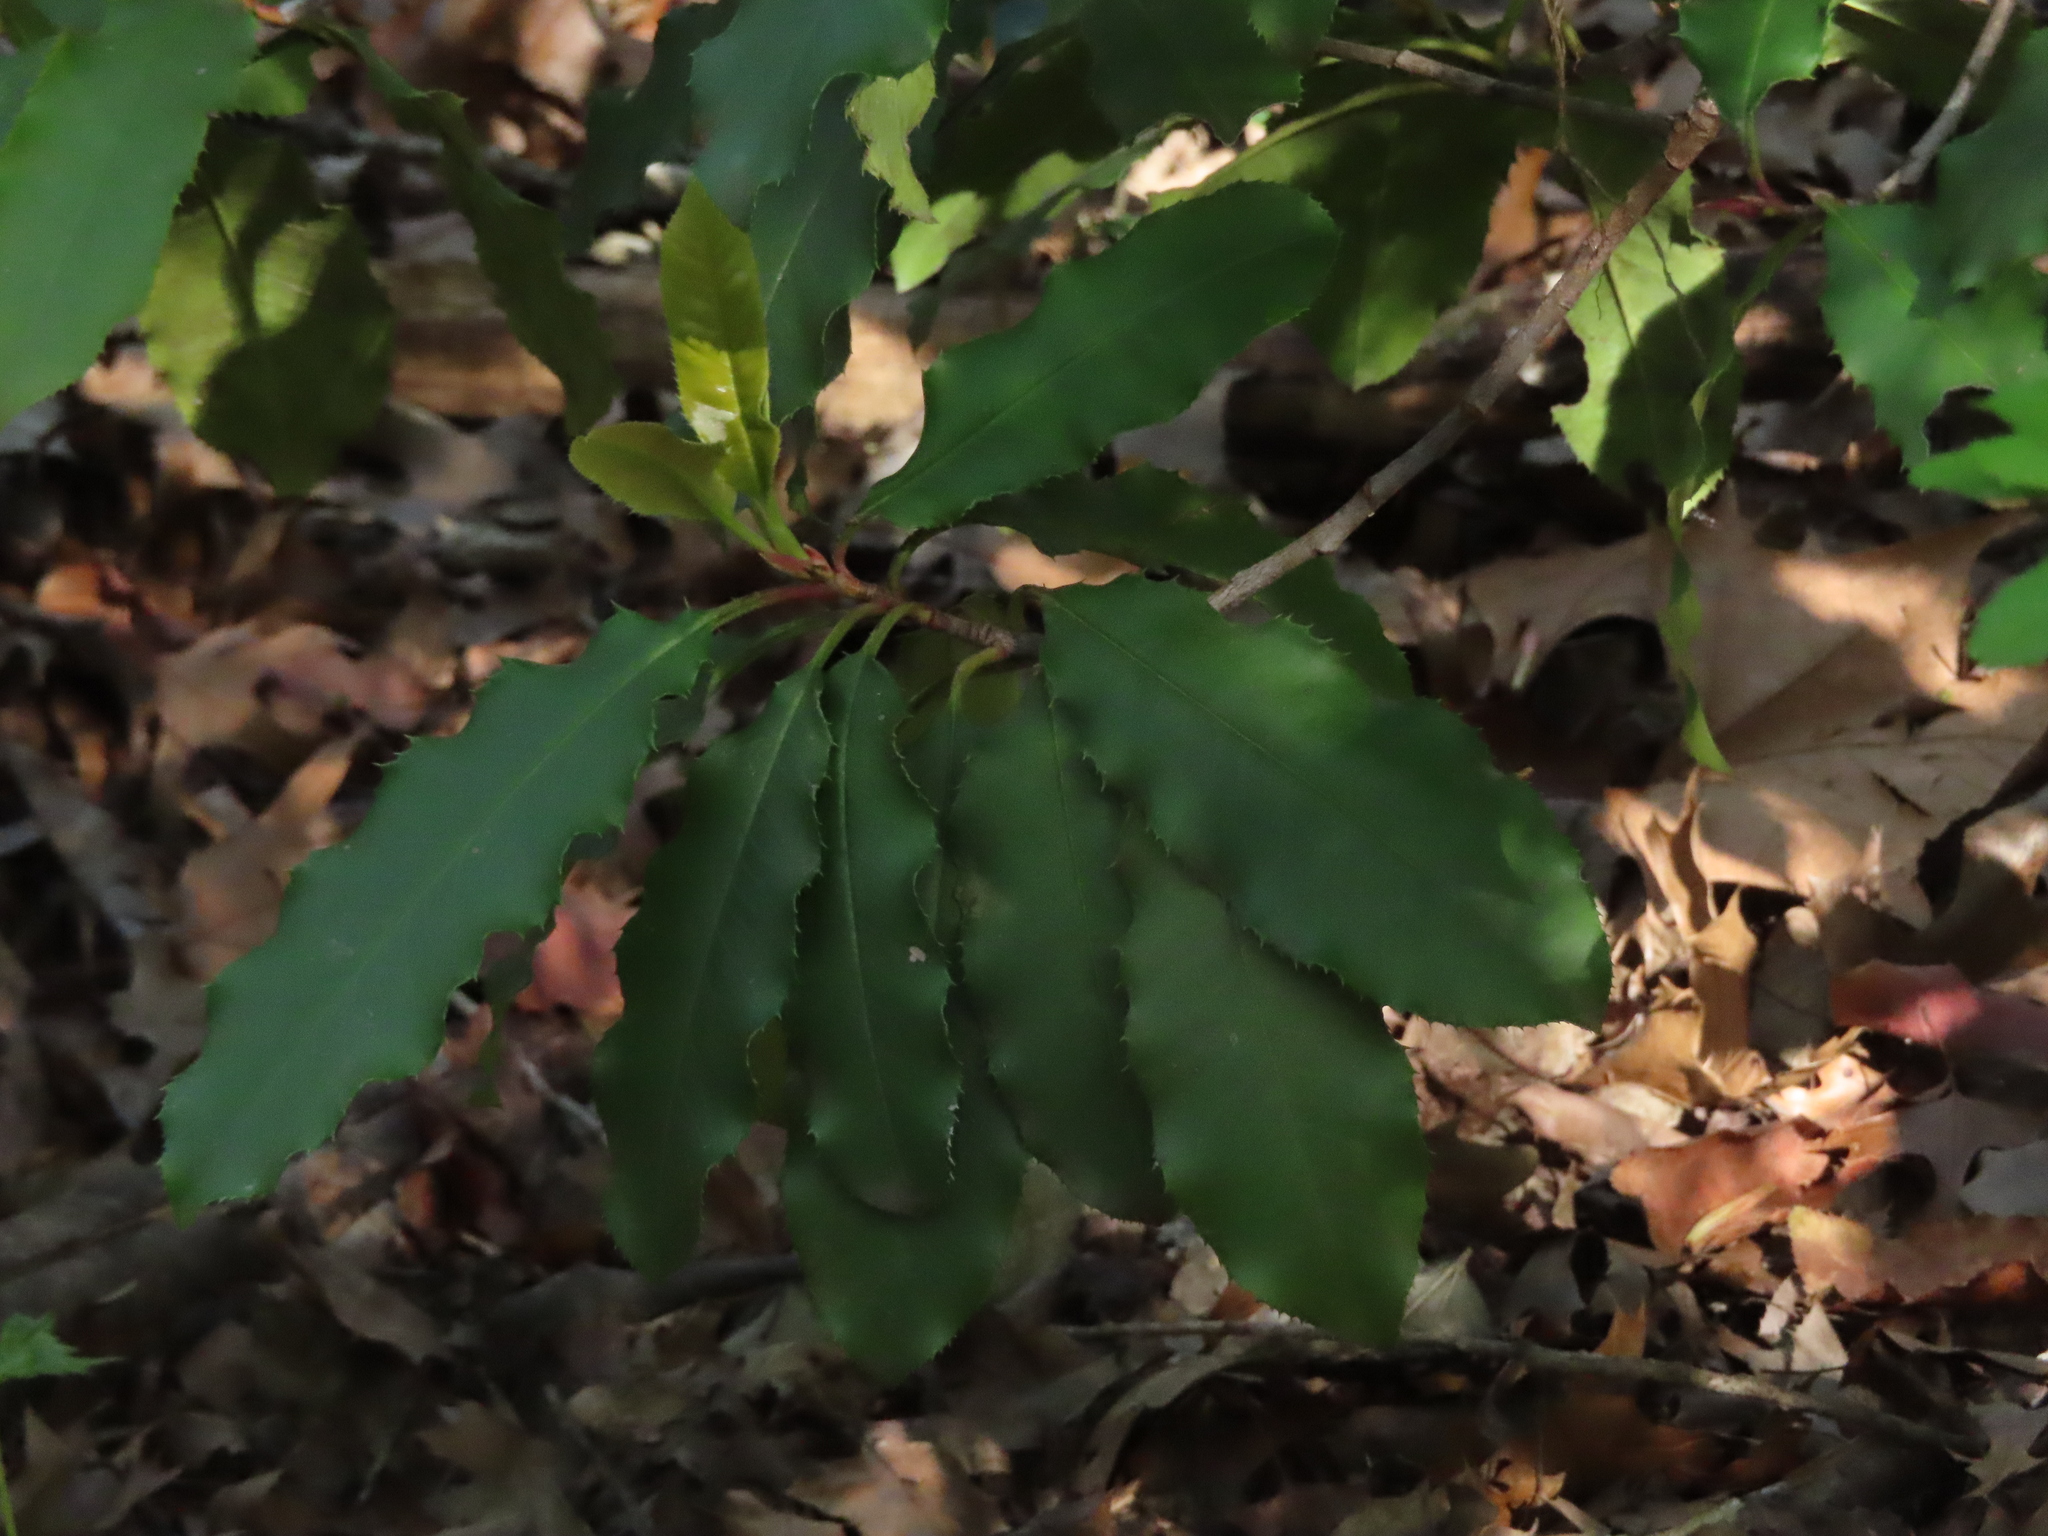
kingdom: Plantae
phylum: Tracheophyta
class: Magnoliopsida
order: Rosales
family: Rosaceae
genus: Photinia
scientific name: Photinia serratifolia
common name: Taiwanese photinia
